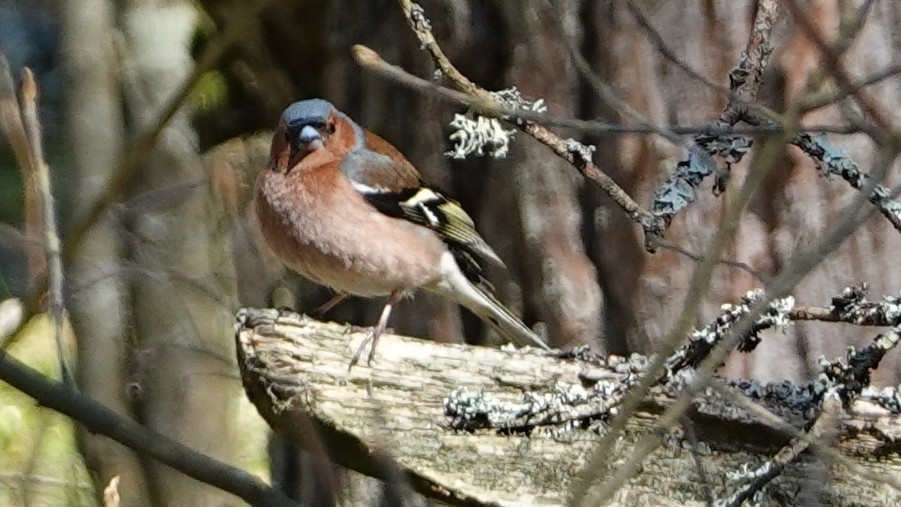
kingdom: Animalia
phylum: Chordata
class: Aves
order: Passeriformes
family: Fringillidae
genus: Fringilla
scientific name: Fringilla coelebs
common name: Common chaffinch
